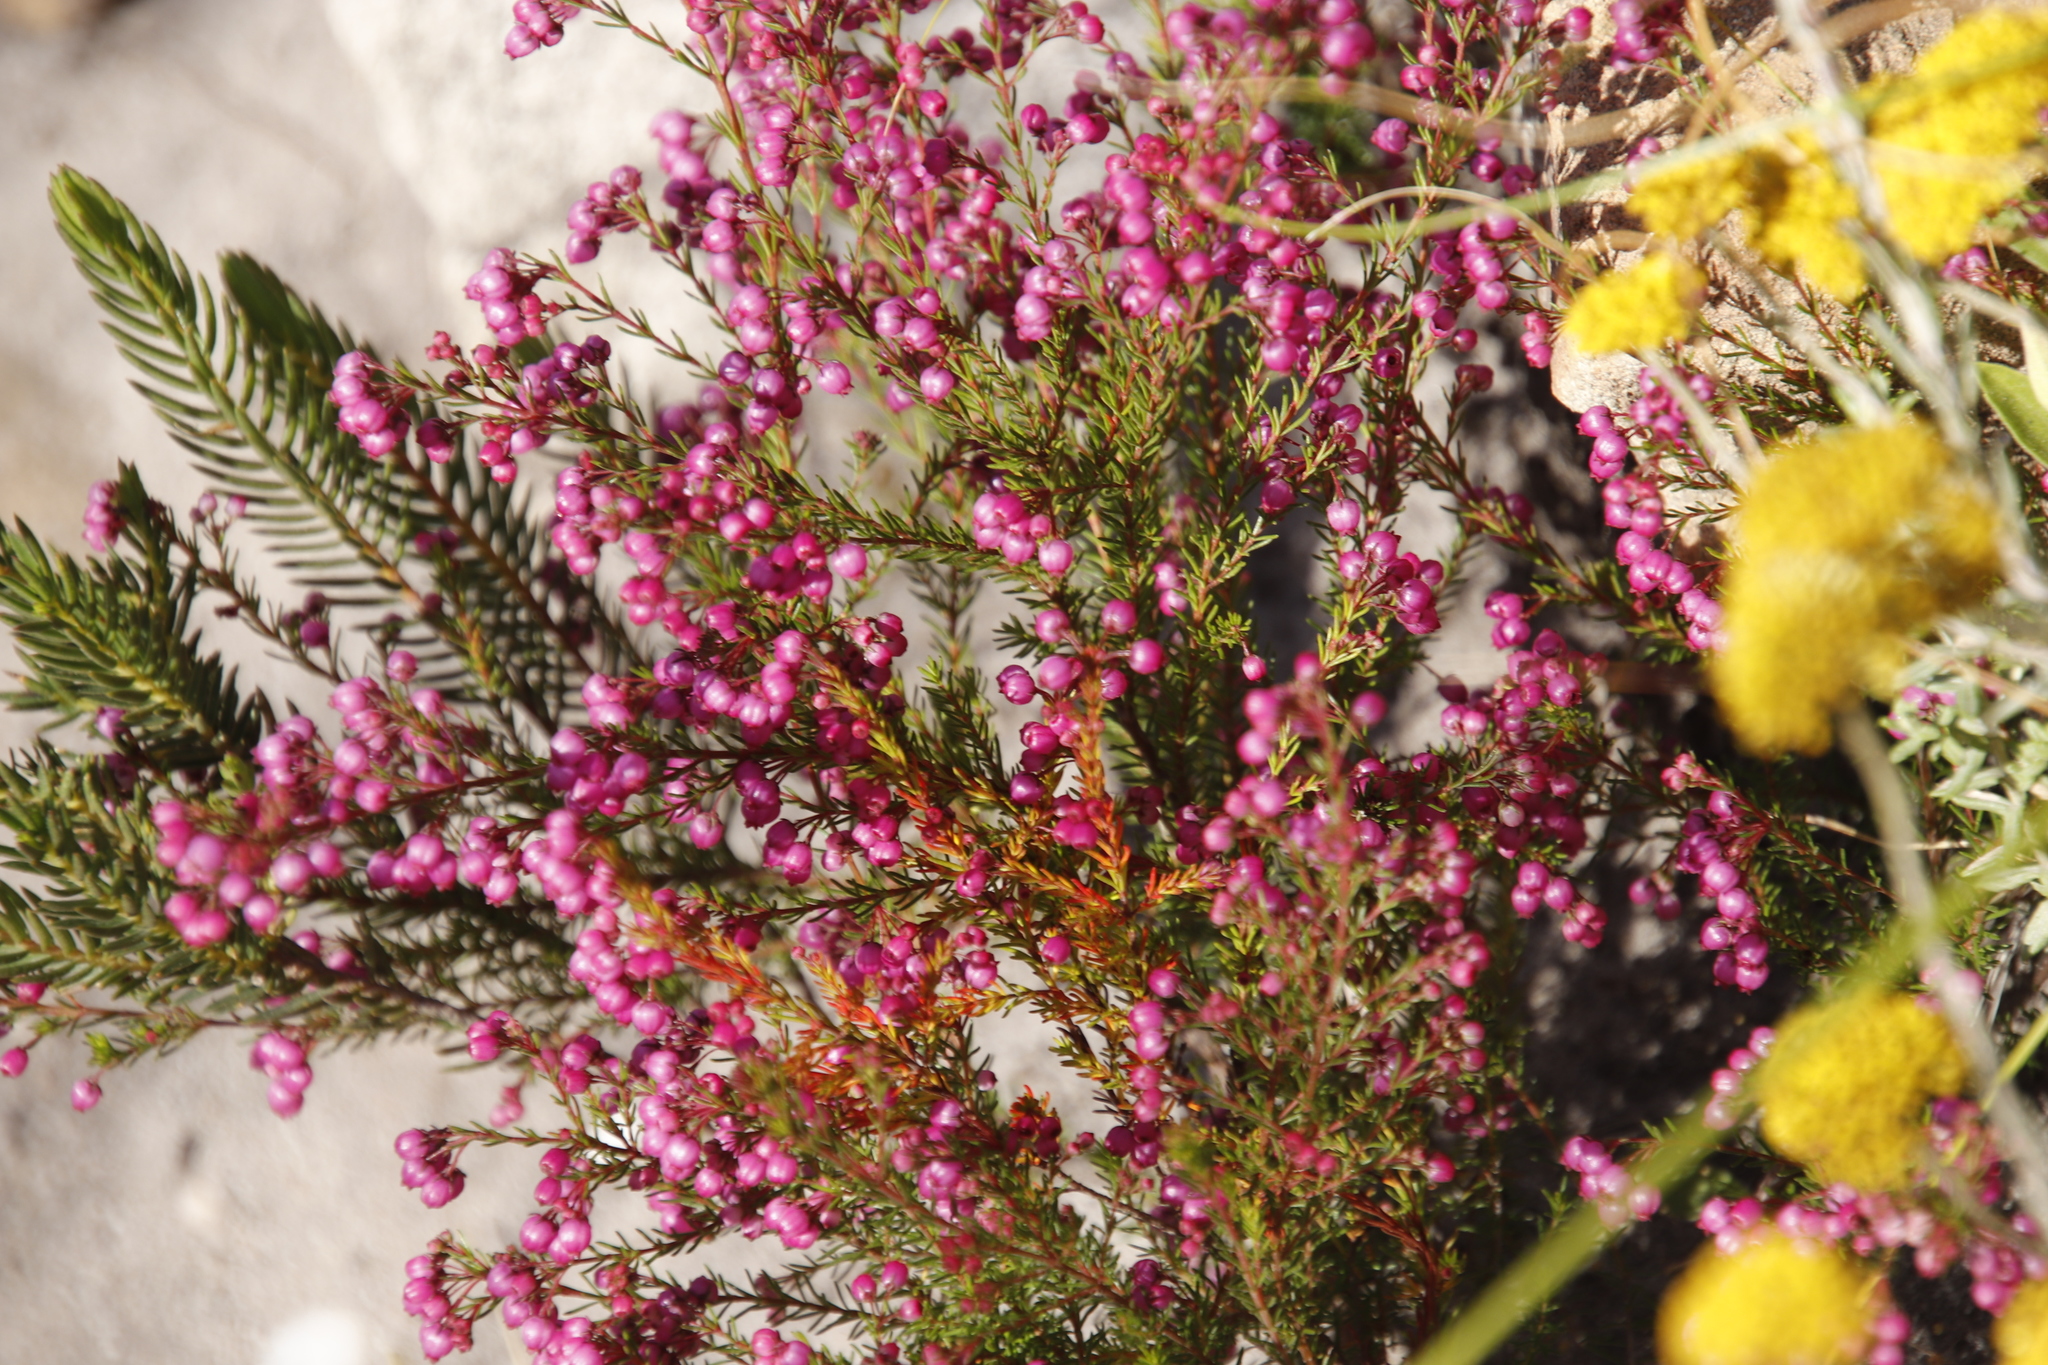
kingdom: Plantae
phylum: Tracheophyta
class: Magnoliopsida
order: Ericales
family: Ericaceae
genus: Erica
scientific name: Erica multumbellifera
